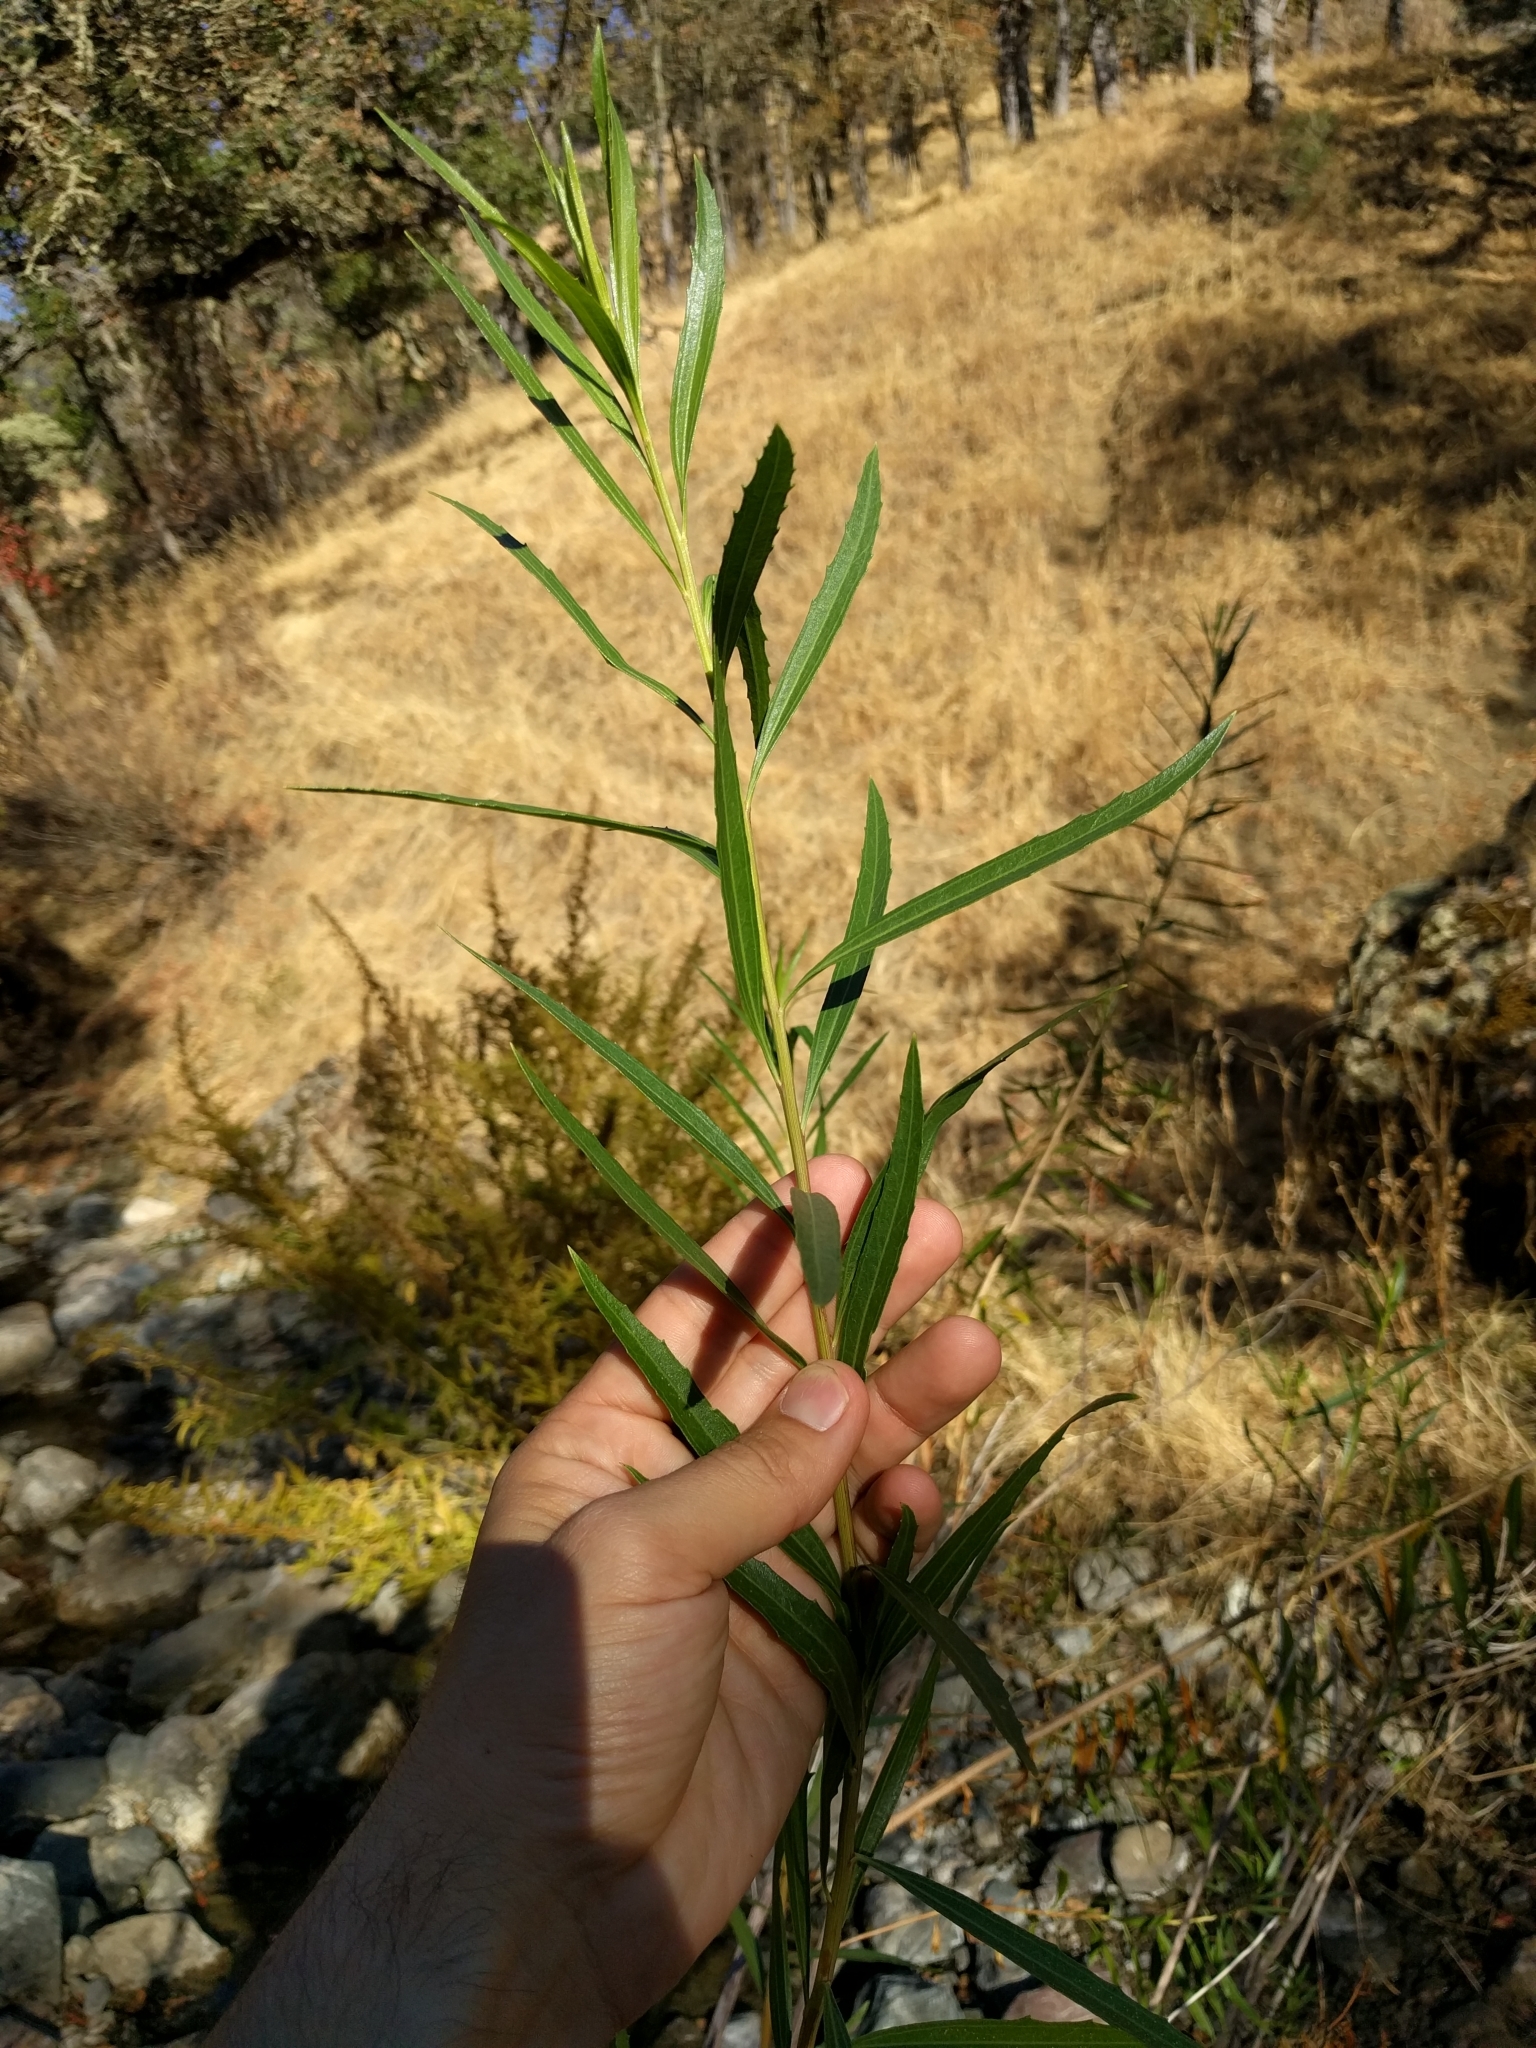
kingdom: Plantae
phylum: Tracheophyta
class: Magnoliopsida
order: Asterales
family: Asteraceae
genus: Baccharis
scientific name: Baccharis salicifolia
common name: Sticky baccharis
